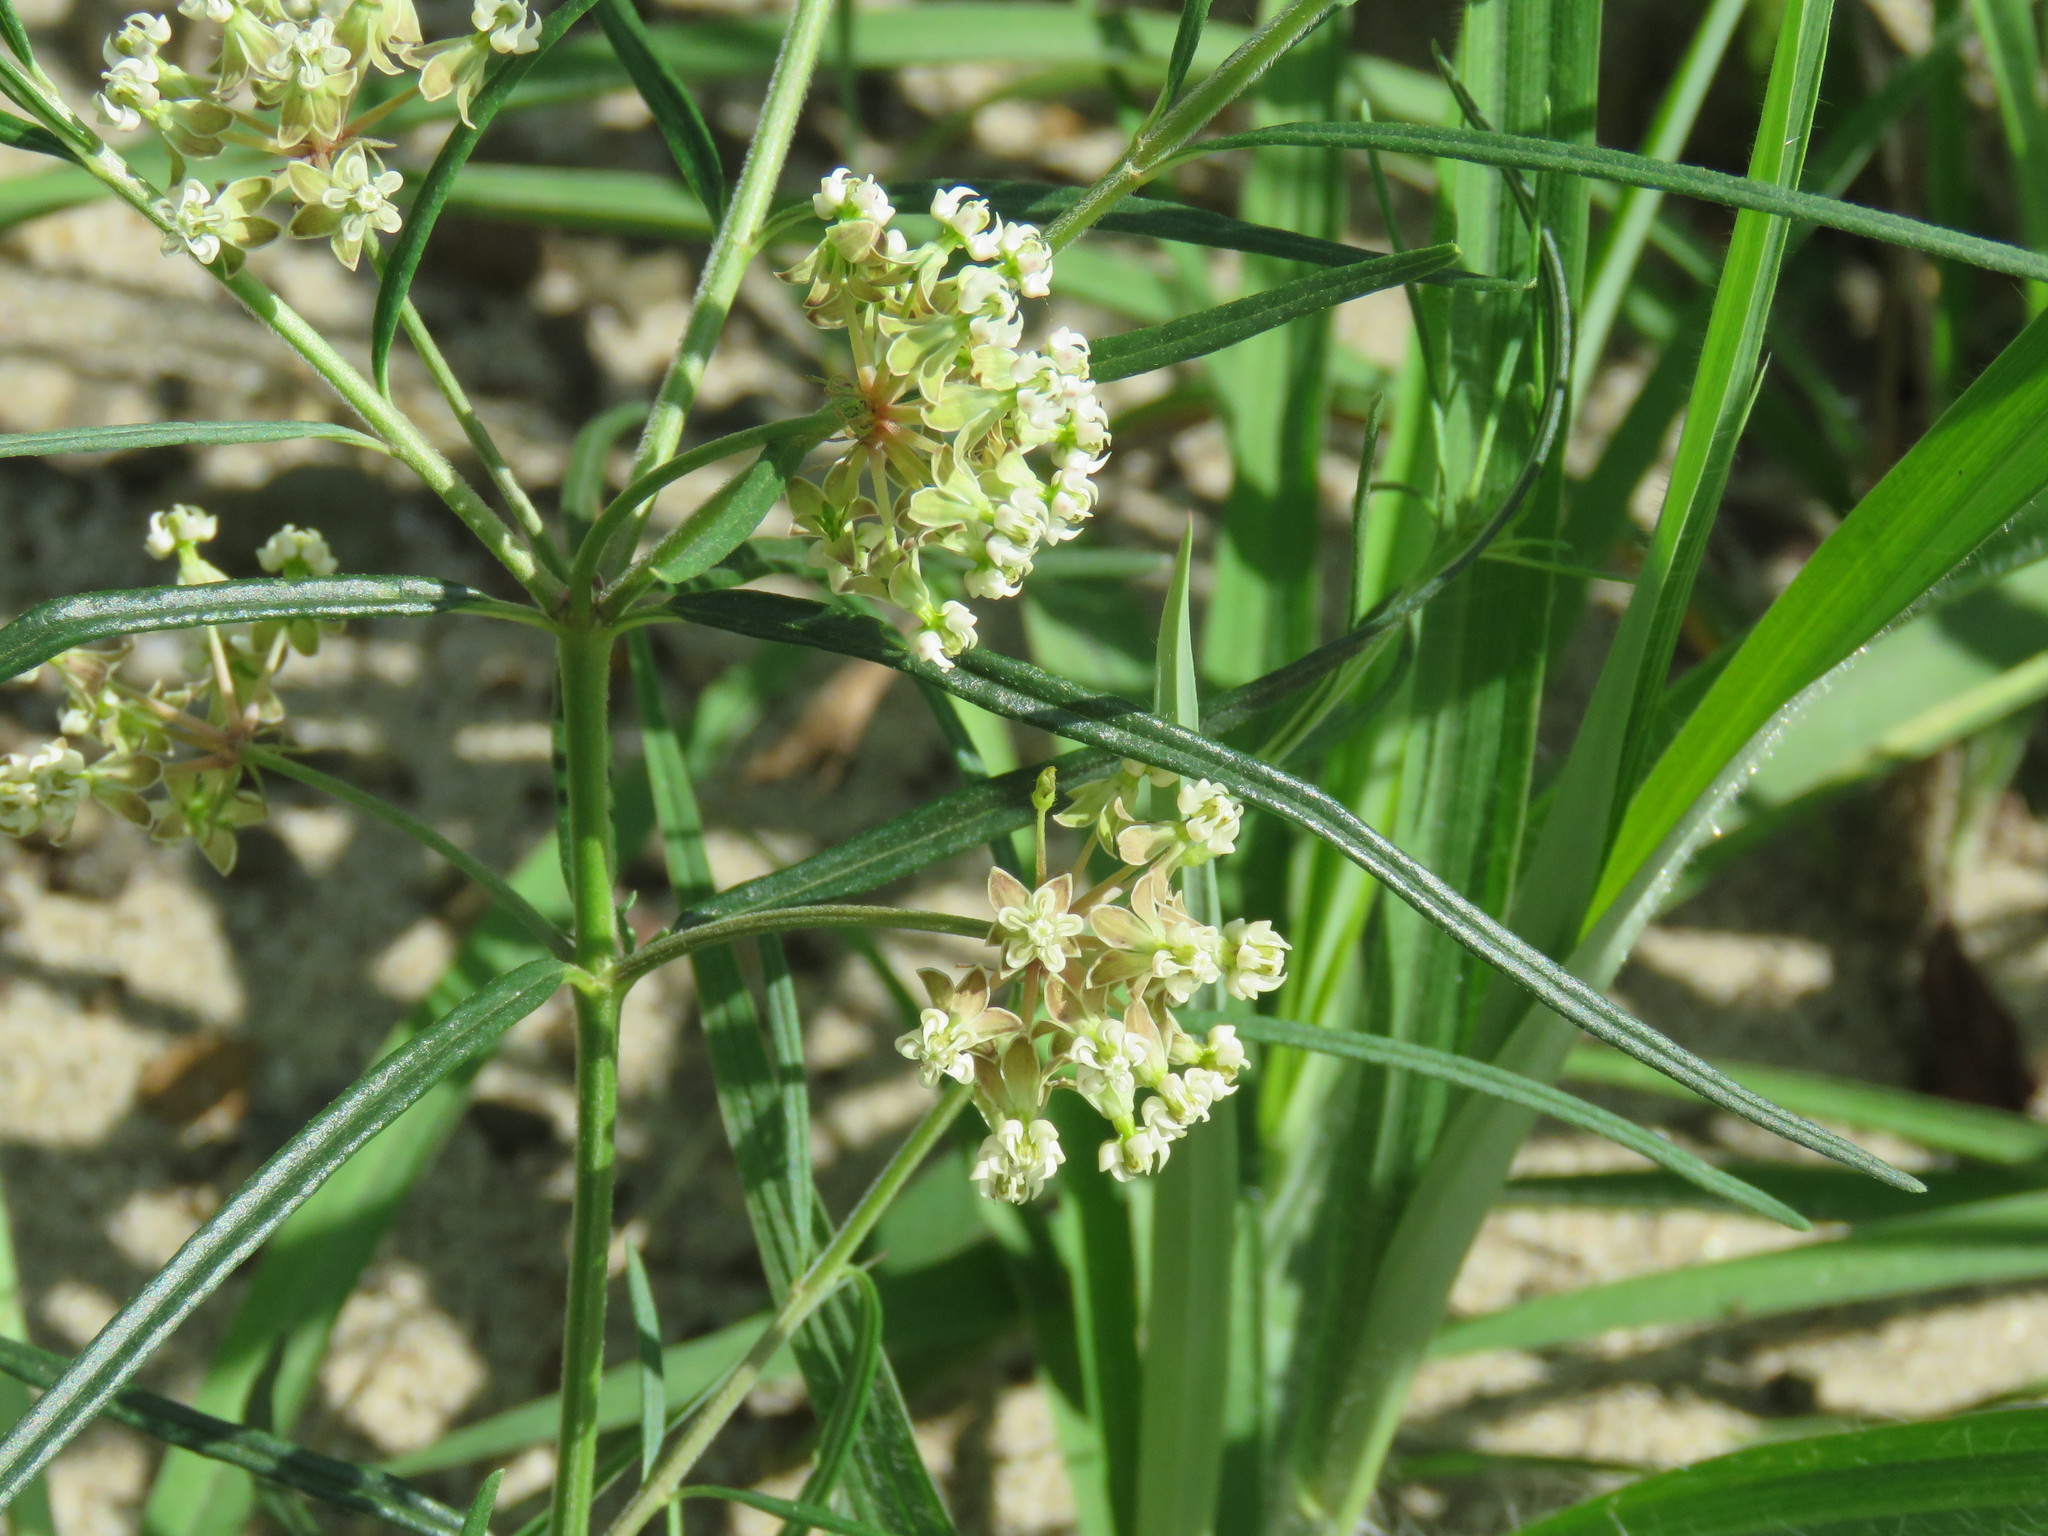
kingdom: Plantae
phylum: Tracheophyta
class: Magnoliopsida
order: Gentianales
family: Apocynaceae
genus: Asclepias
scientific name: Asclepias verticillata
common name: Eastern whorled milkweed
